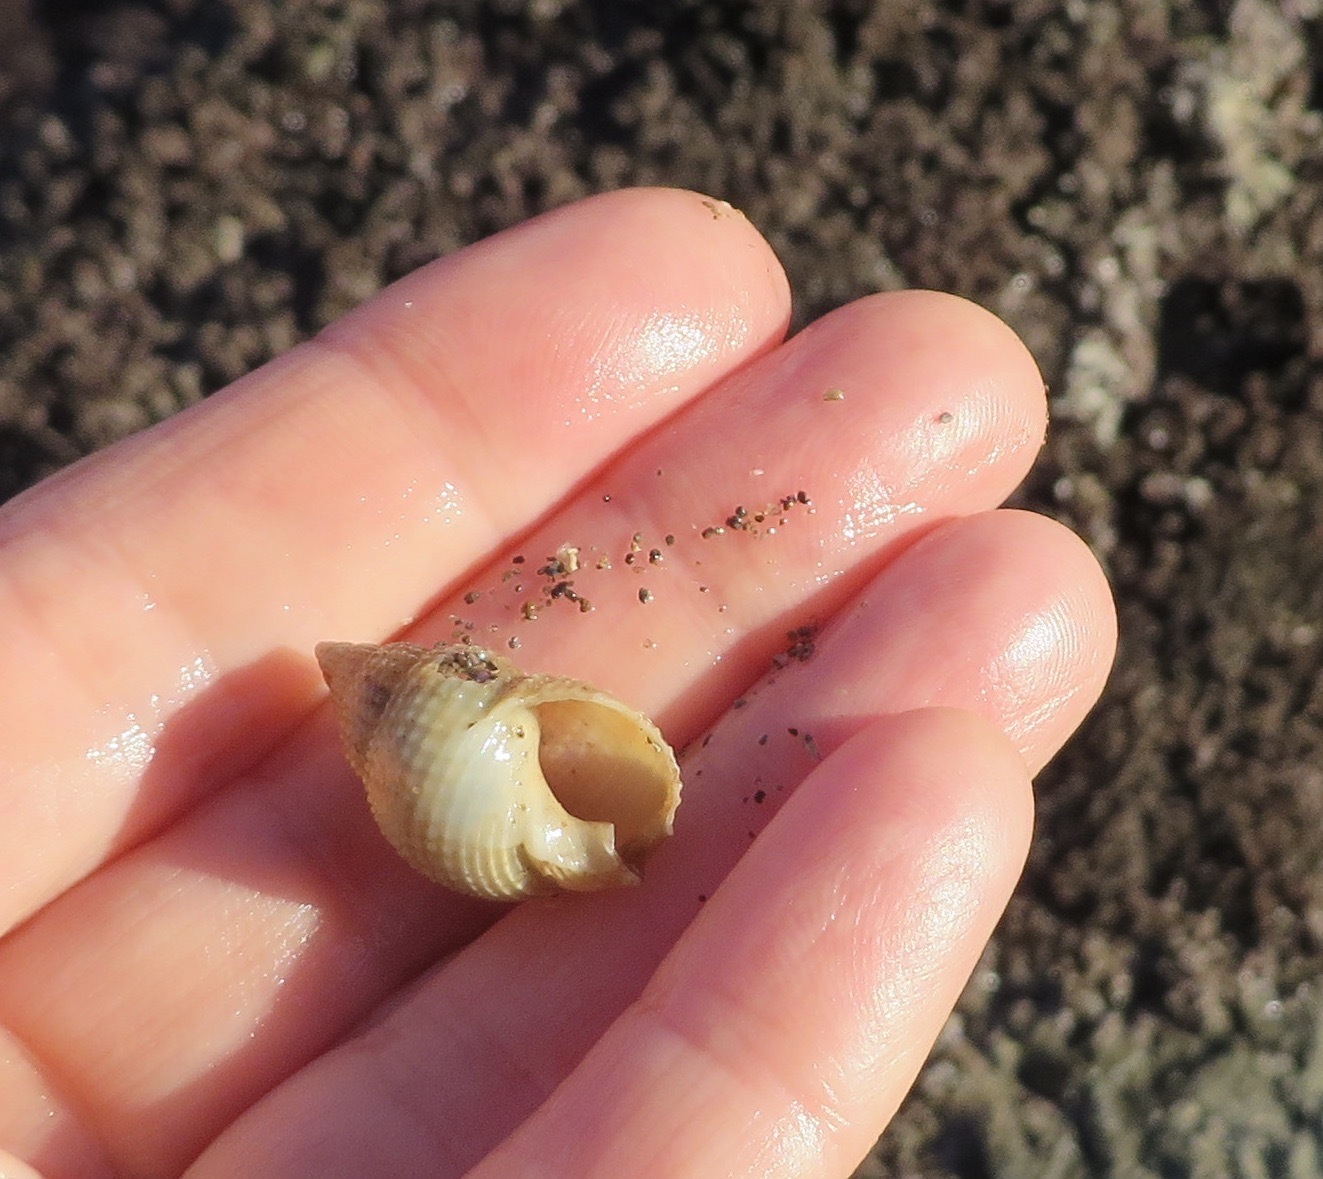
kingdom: Animalia
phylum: Mollusca
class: Gastropoda
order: Neogastropoda
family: Nassariidae
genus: Caesia
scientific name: Caesia perpinguis
